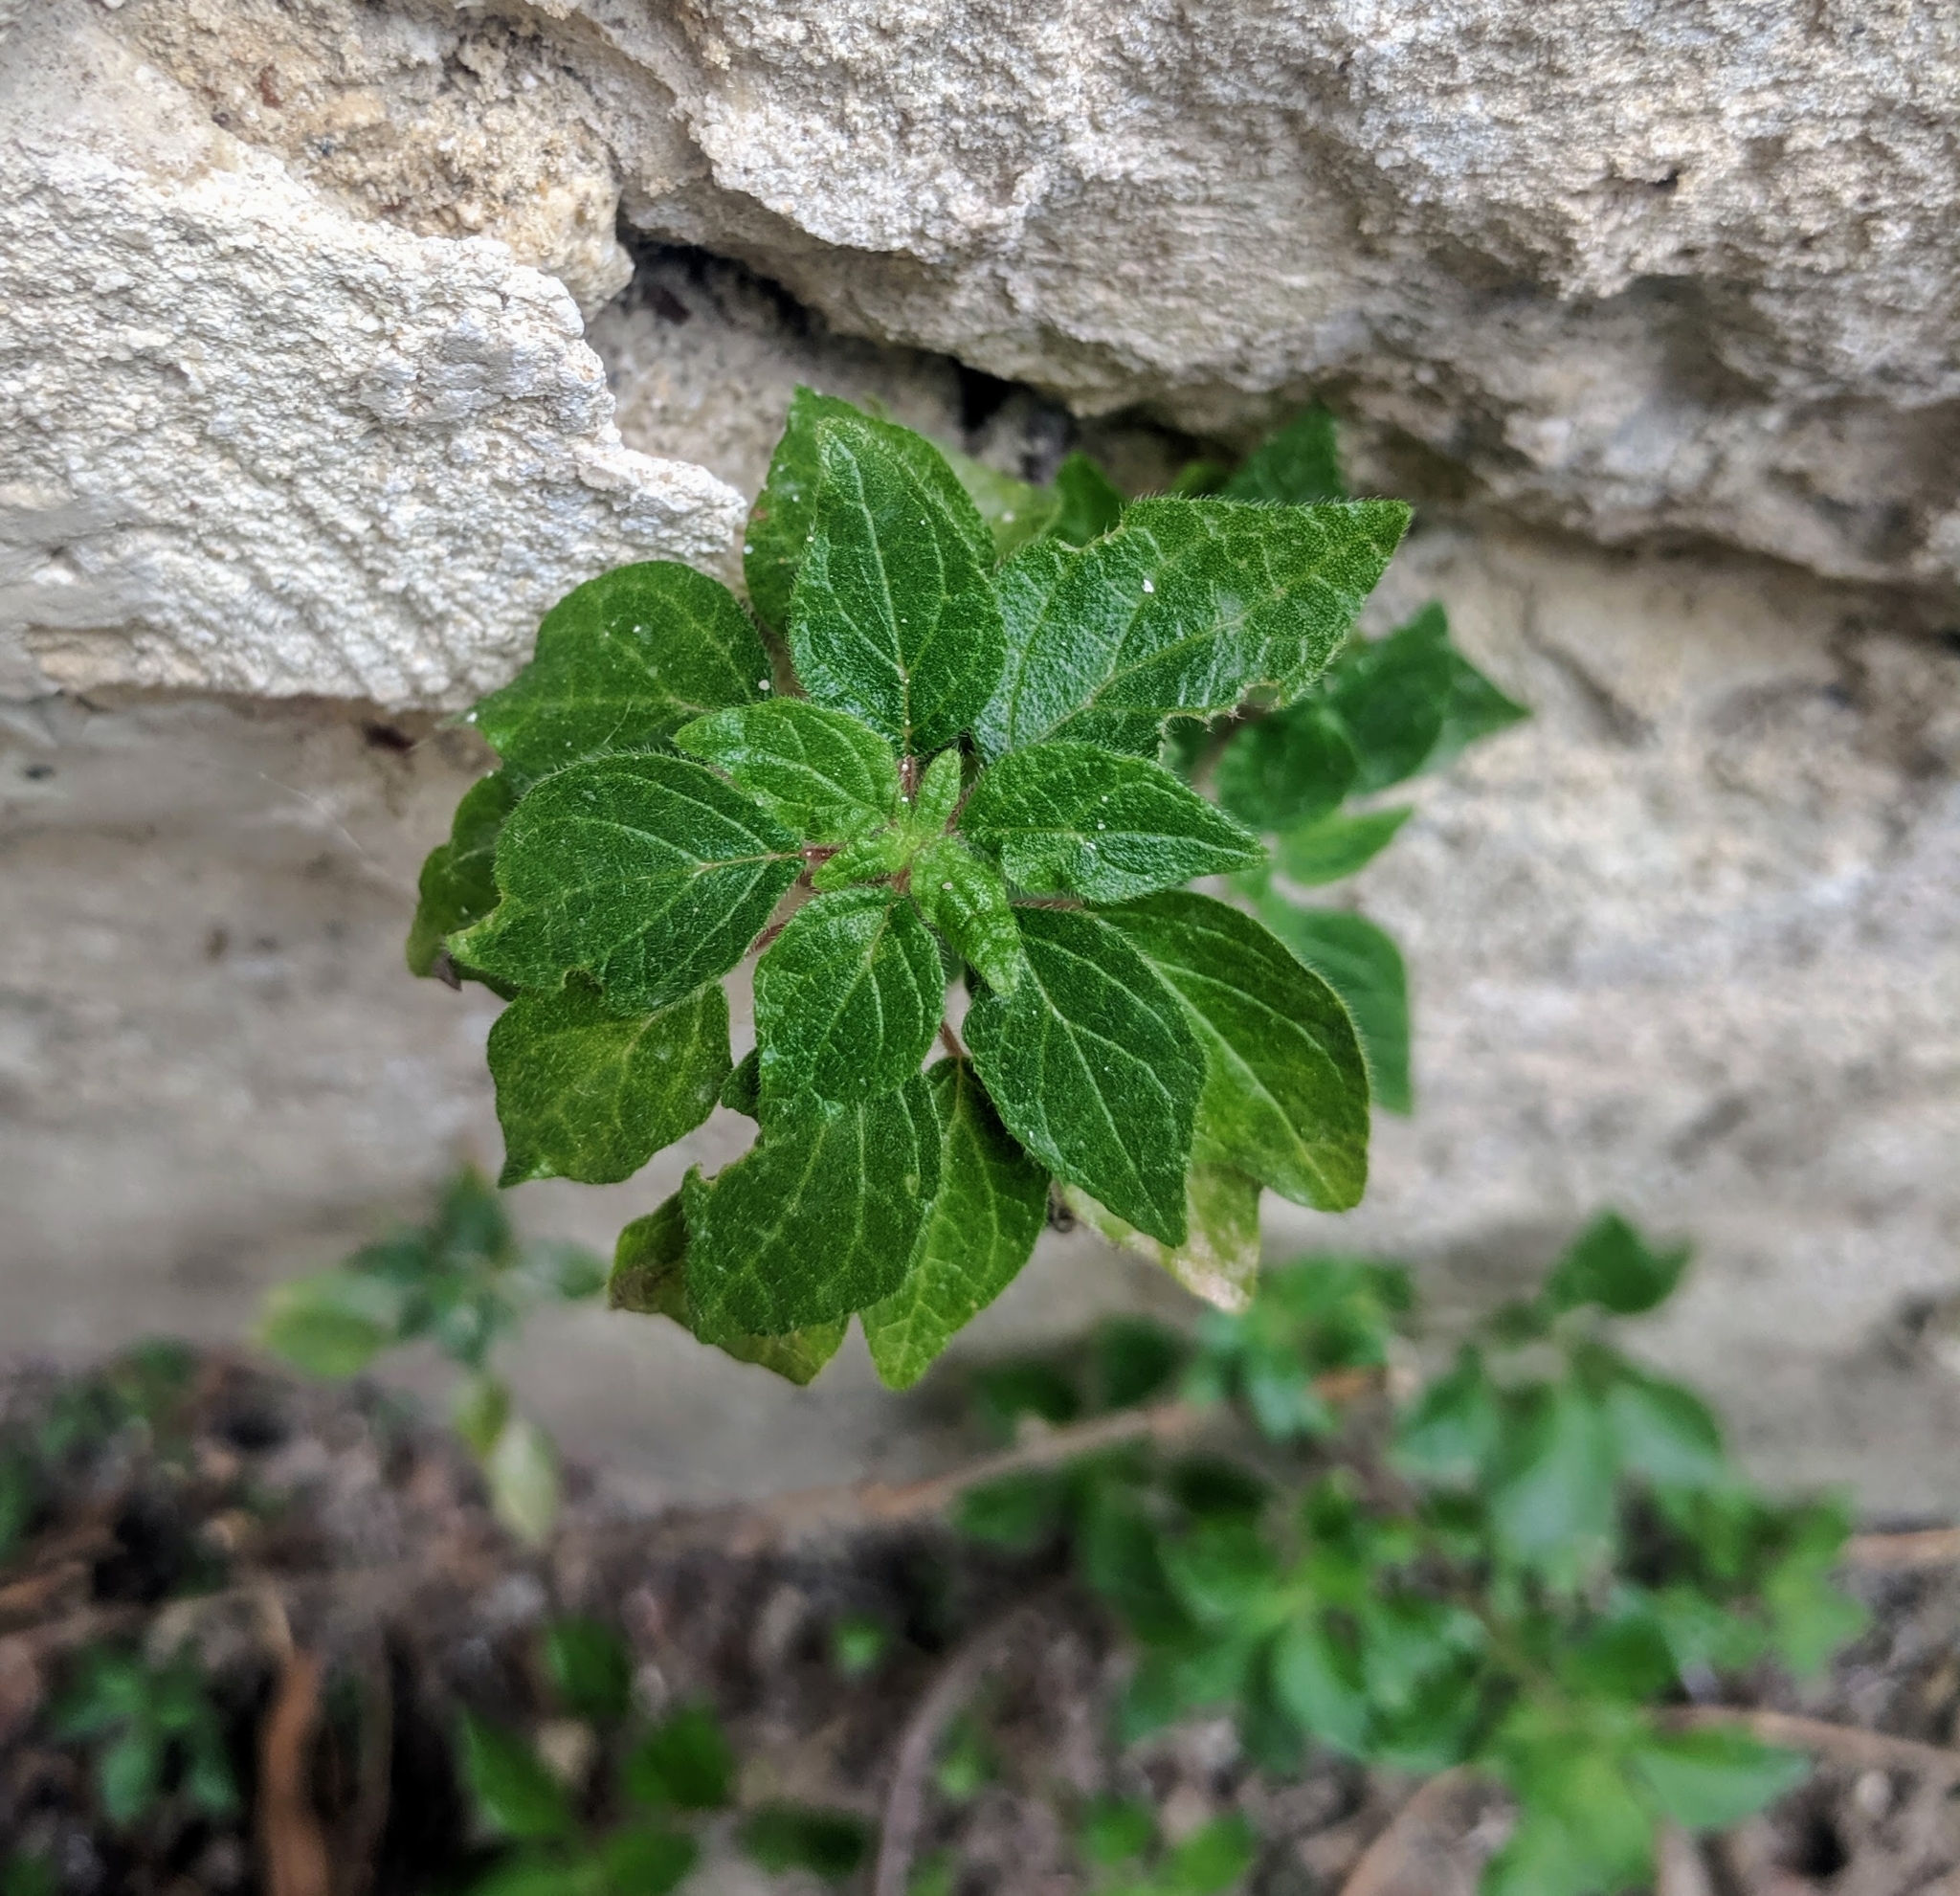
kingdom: Plantae
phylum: Tracheophyta
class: Magnoliopsida
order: Rosales
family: Urticaceae
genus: Parietaria
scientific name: Parietaria judaica
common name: Pellitory-of-the-wall
